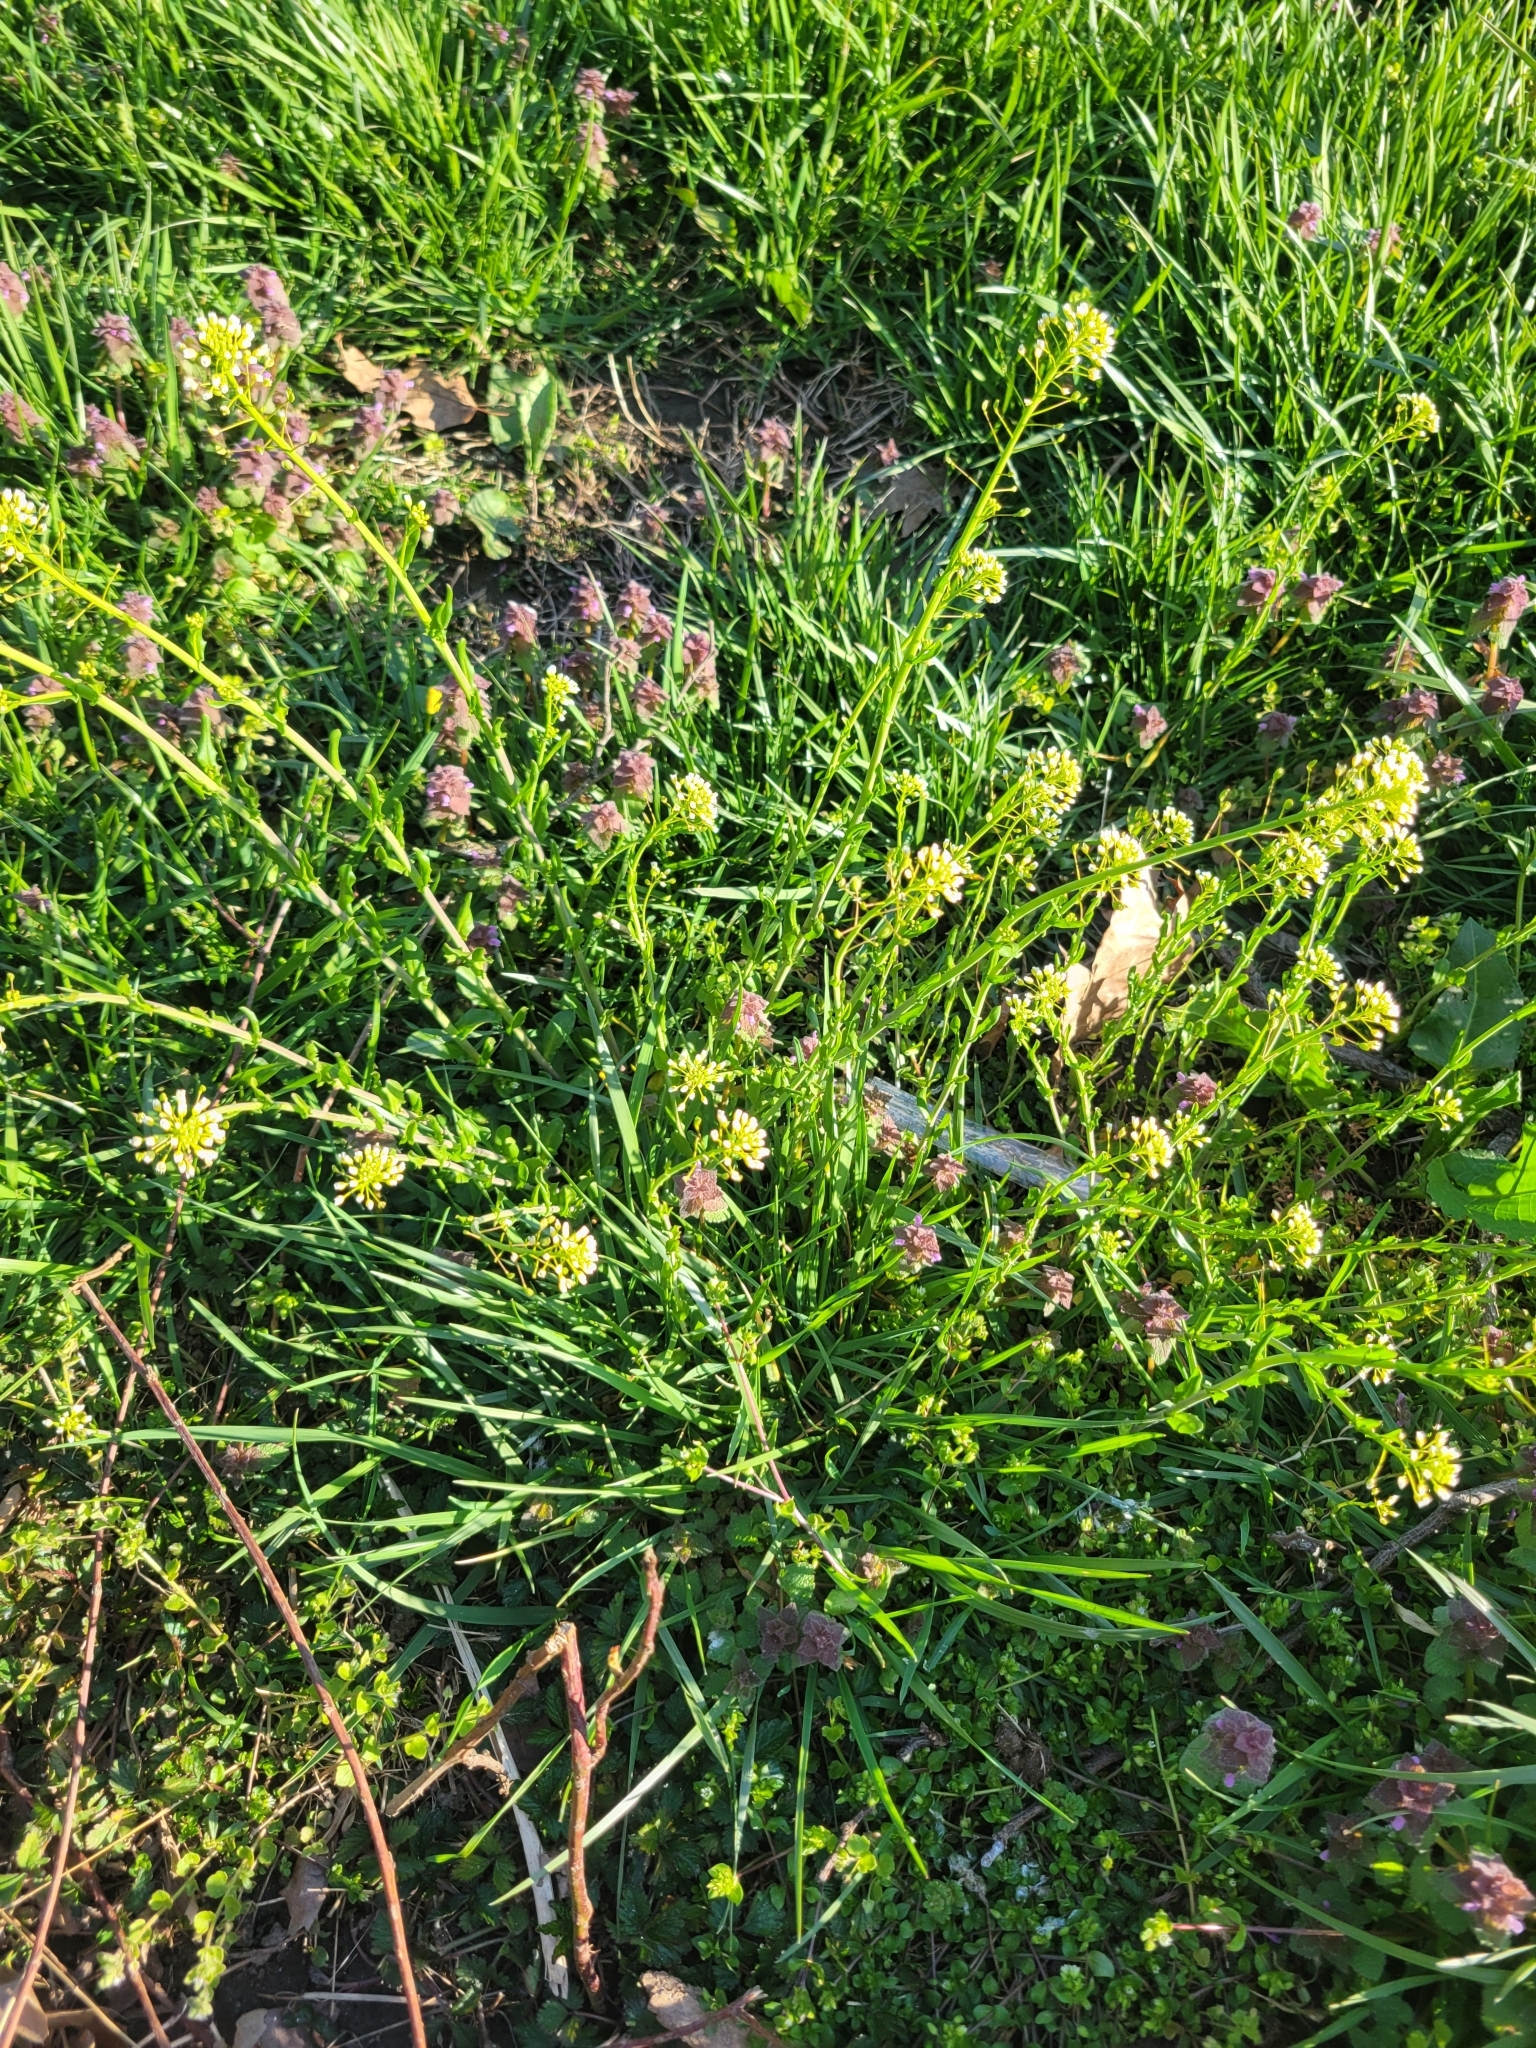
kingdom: Plantae
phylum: Tracheophyta
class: Magnoliopsida
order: Brassicales
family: Brassicaceae
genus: Mummenhoffia
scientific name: Mummenhoffia alliacea
